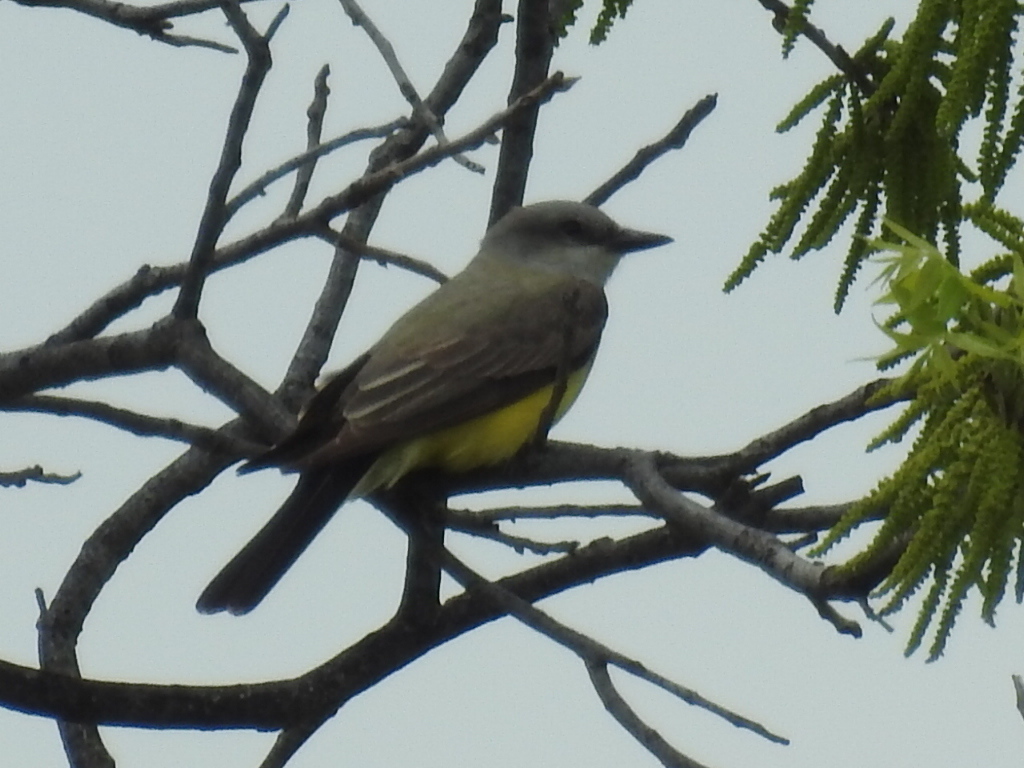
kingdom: Animalia
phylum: Chordata
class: Aves
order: Passeriformes
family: Tyrannidae
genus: Tyrannus
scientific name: Tyrannus verticalis
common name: Western kingbird
